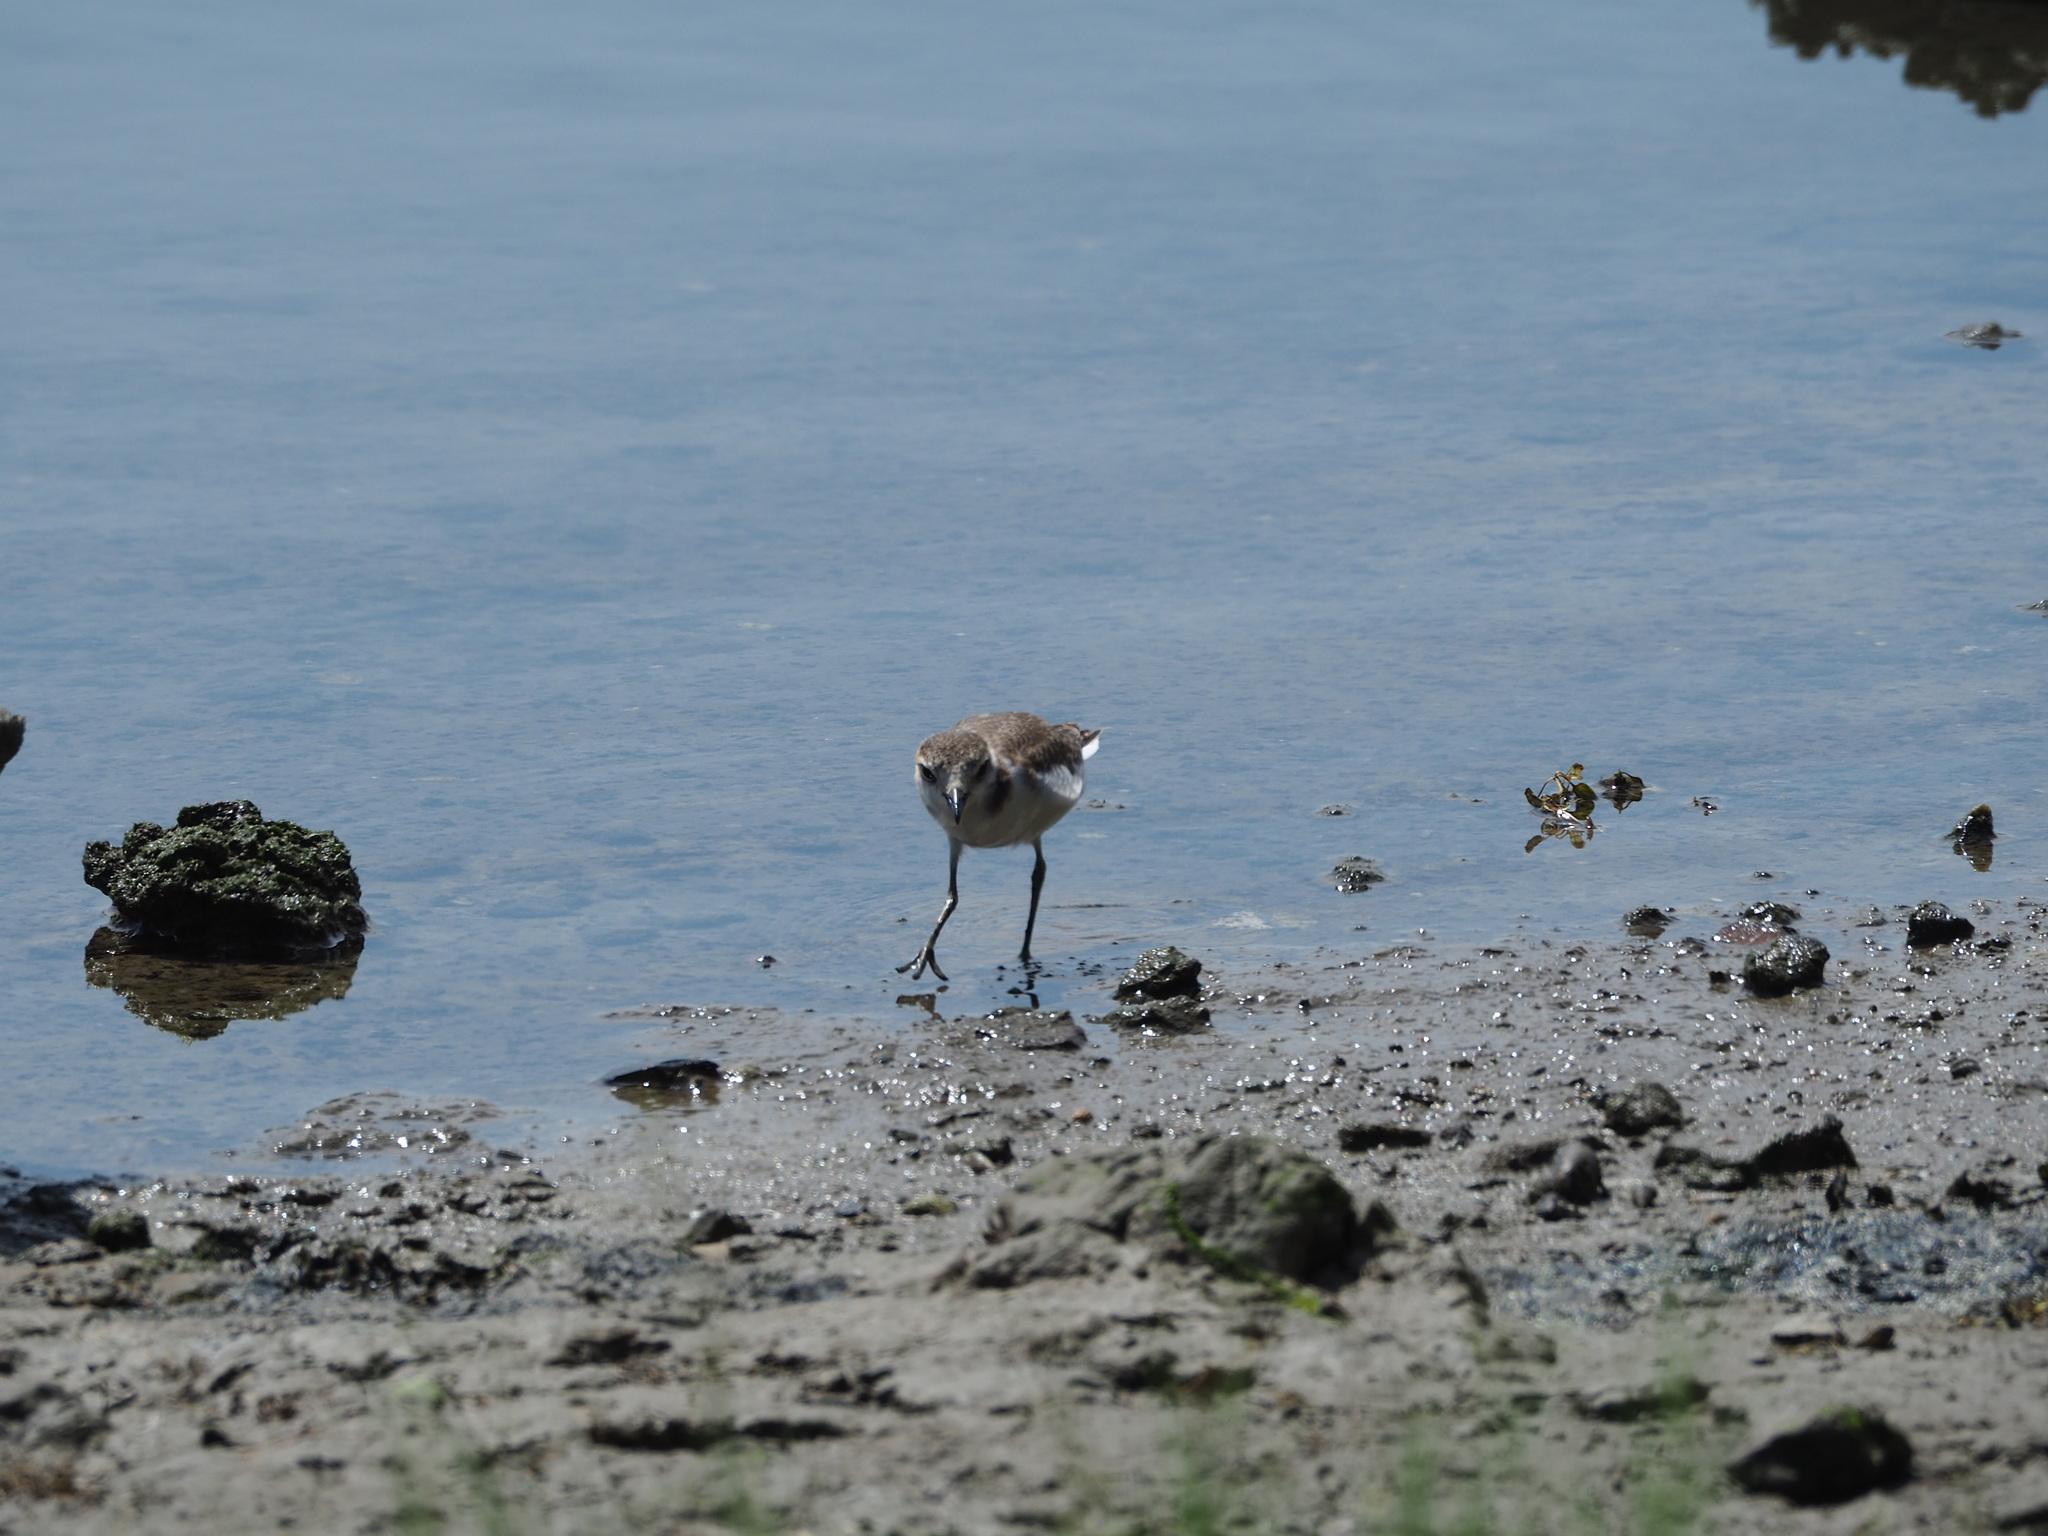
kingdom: Animalia
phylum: Chordata
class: Aves
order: Charadriiformes
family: Charadriidae
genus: Charadrius
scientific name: Charadrius alexandrinus
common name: Kentish plover
